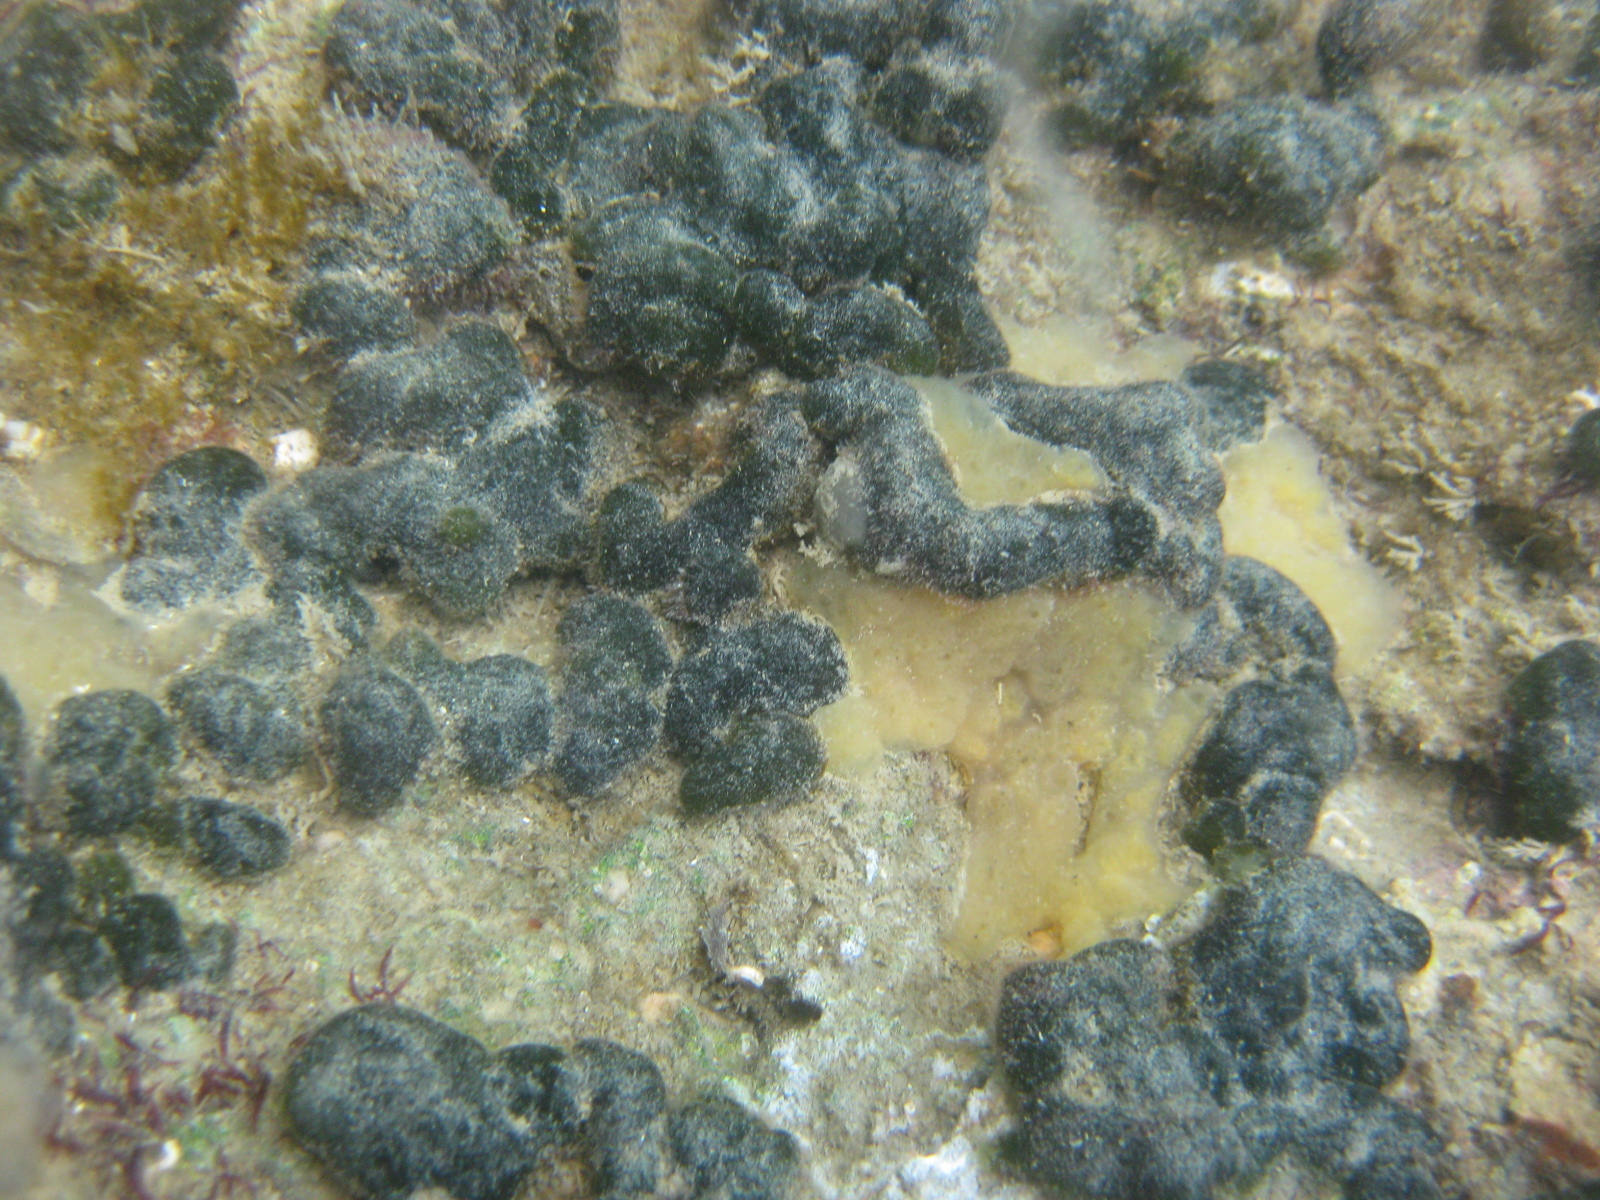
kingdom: Plantae
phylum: Chlorophyta
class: Ulvophyceae
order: Bryopsidales
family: Codiaceae
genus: Codium
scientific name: Codium convolutum
